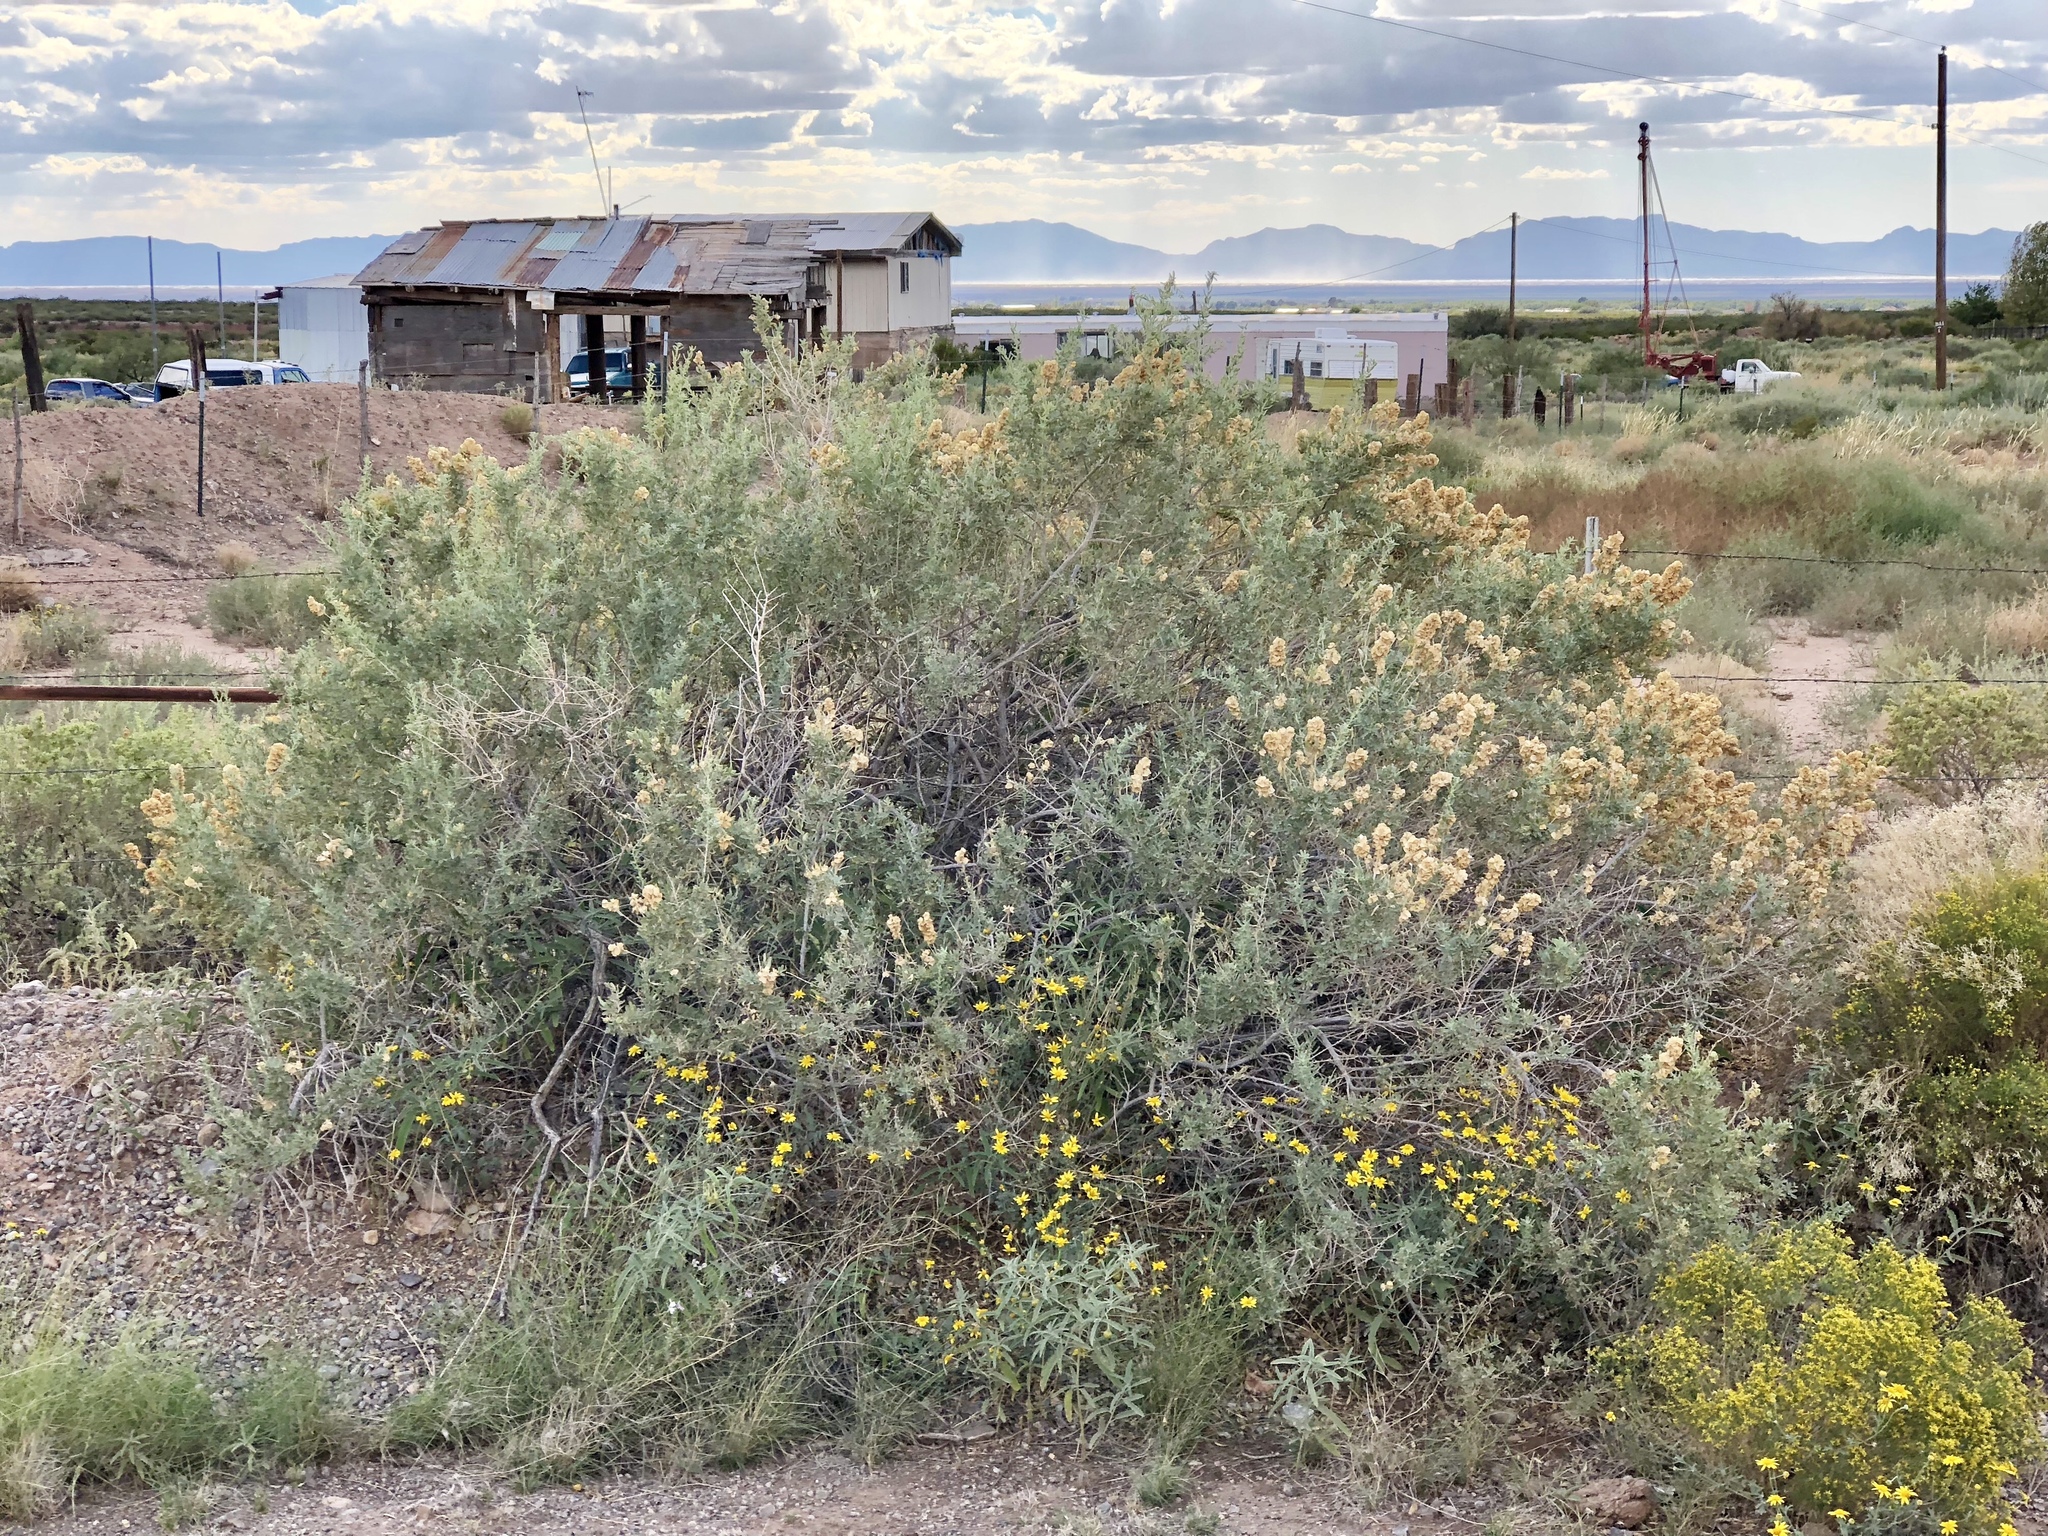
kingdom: Plantae
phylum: Tracheophyta
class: Magnoliopsida
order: Caryophyllales
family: Amaranthaceae
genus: Atriplex
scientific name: Atriplex canescens
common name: Four-wing saltbush
